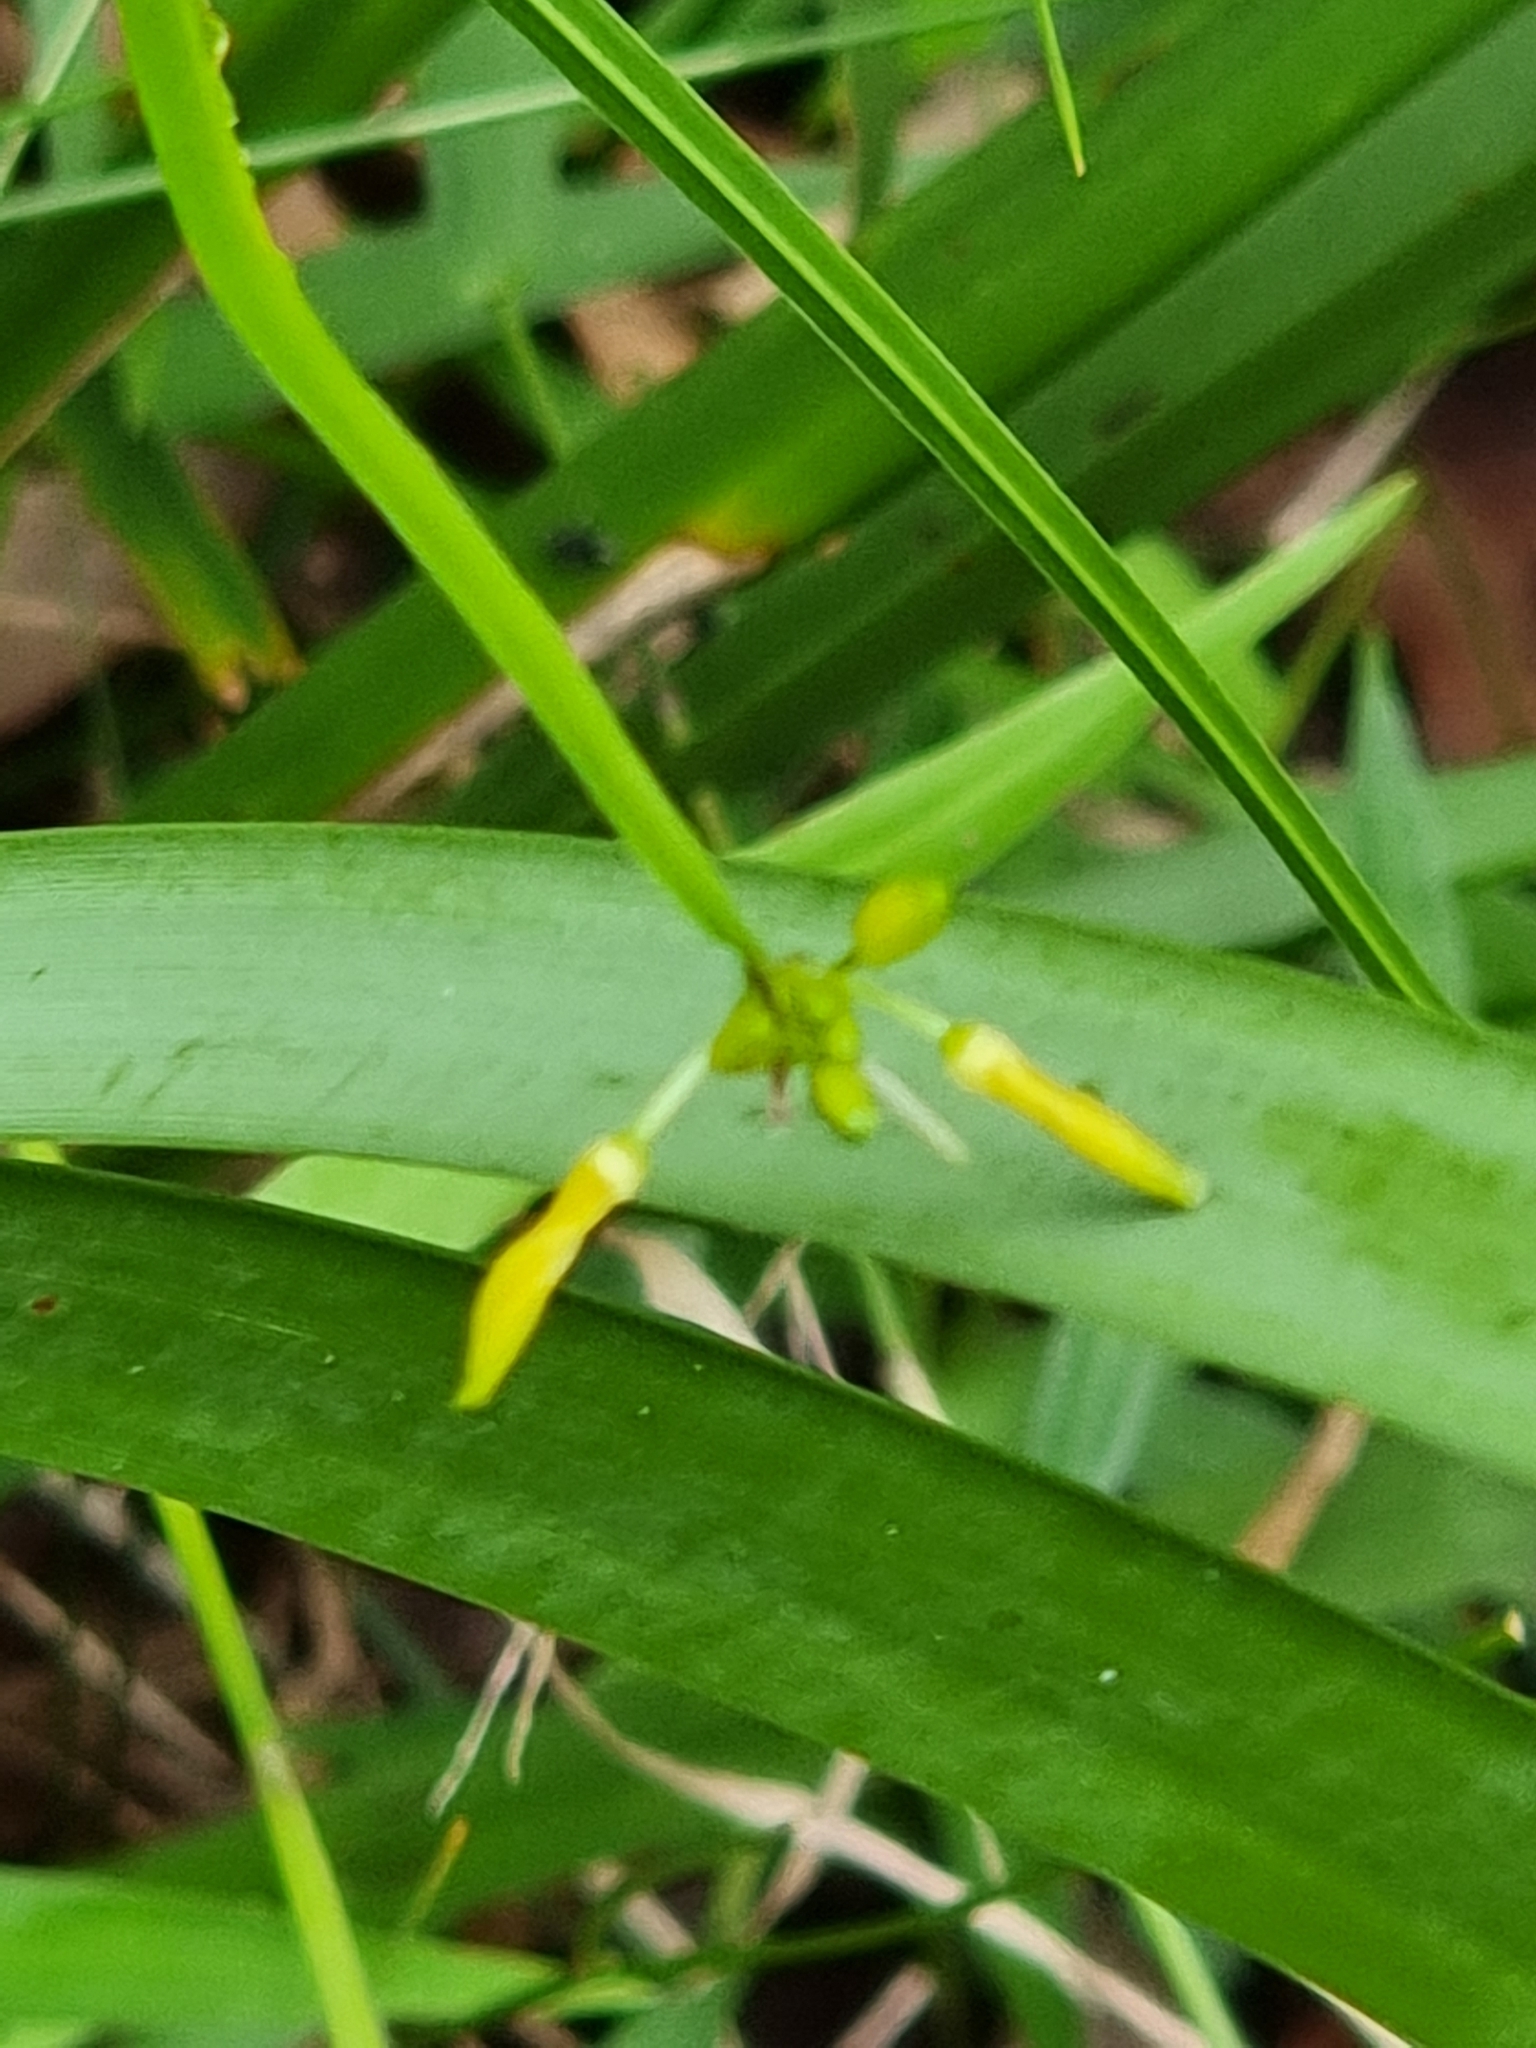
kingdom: Plantae
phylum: Tracheophyta
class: Liliopsida
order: Asparagales
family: Asphodelaceae
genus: Tricoryne
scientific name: Tricoryne anceps
